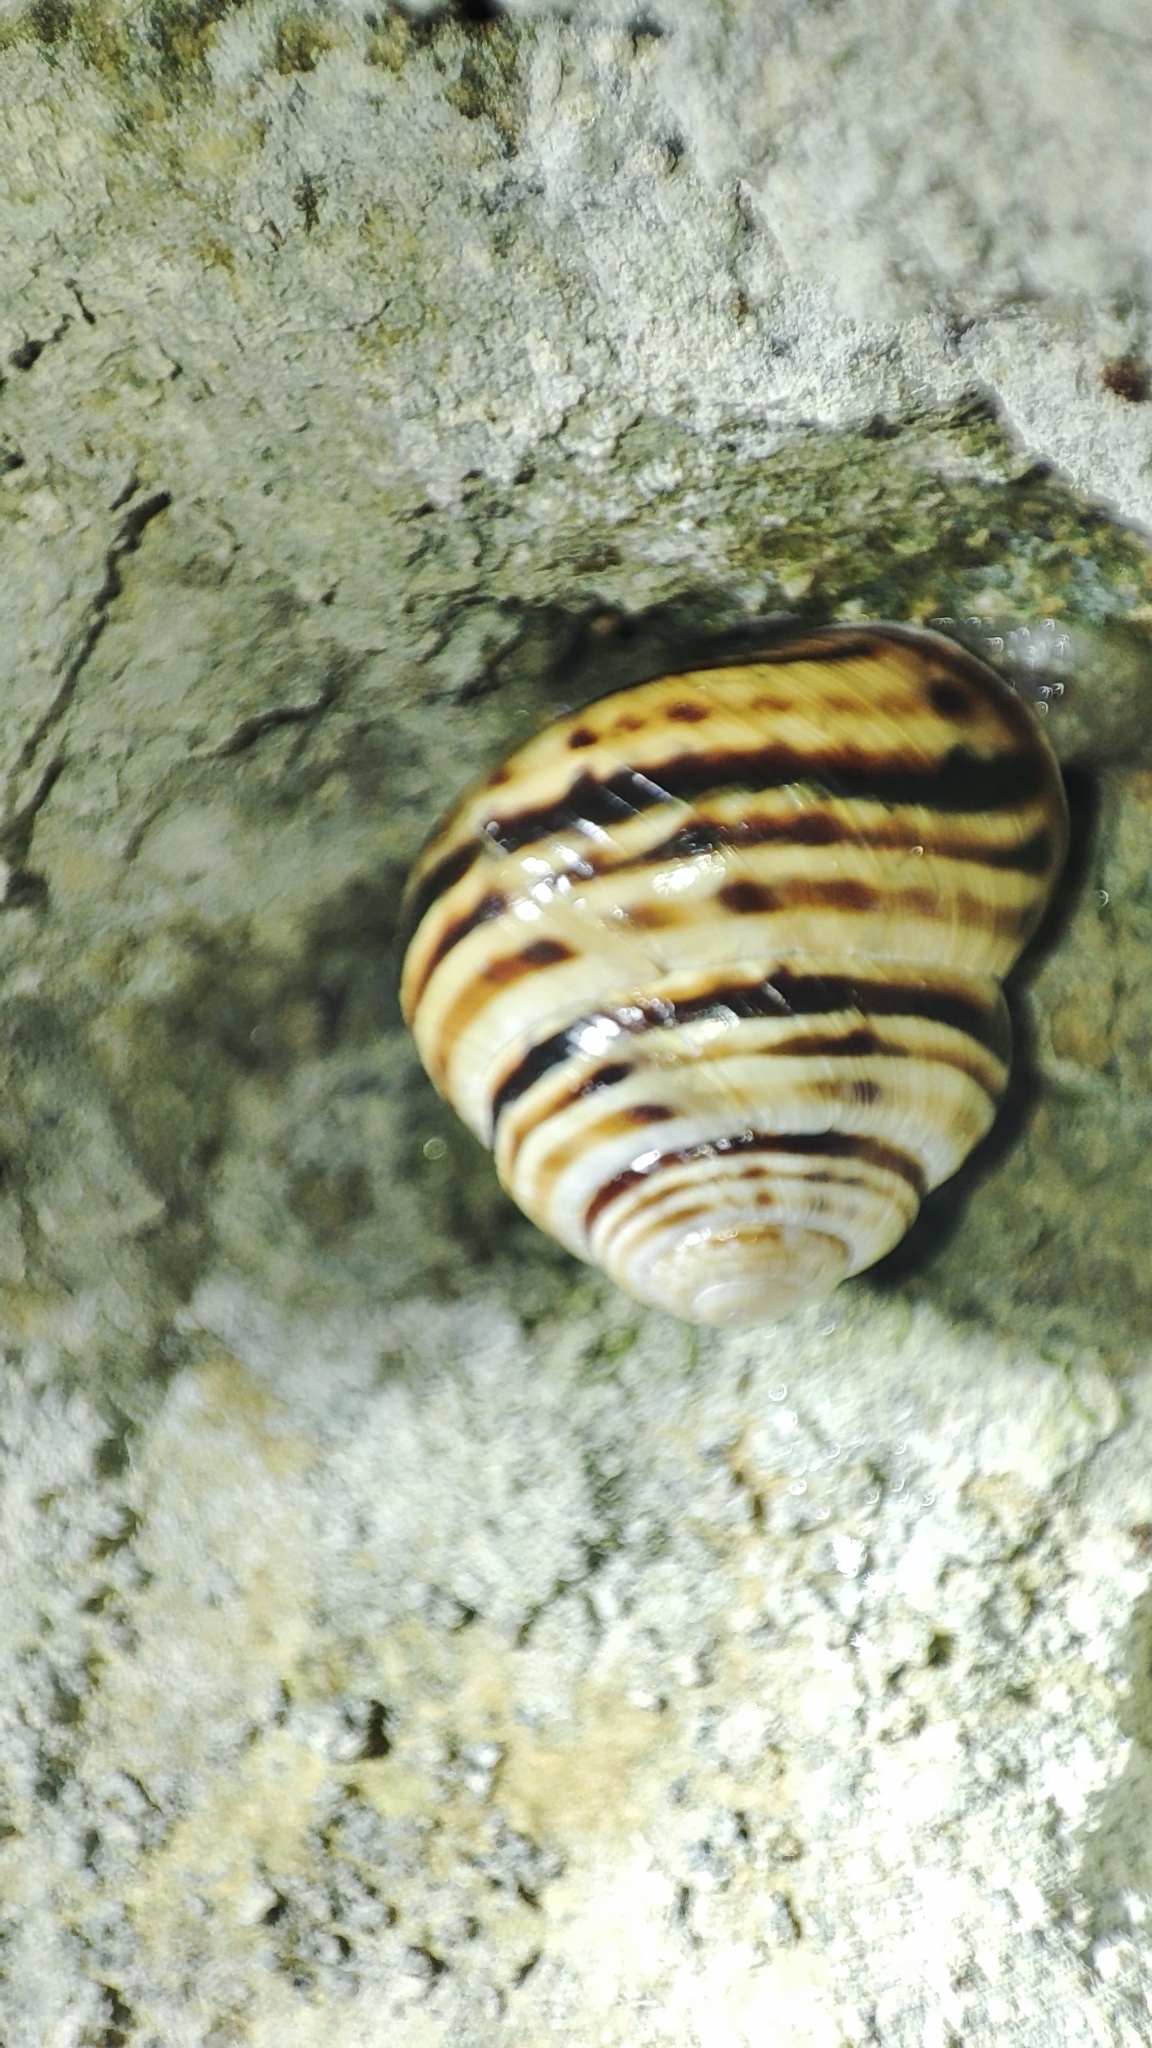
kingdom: Animalia
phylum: Mollusca
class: Gastropoda
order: Stylommatophora
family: Helicidae
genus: Macularia
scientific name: Macularia sylvatica
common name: Hélice sylvatique
